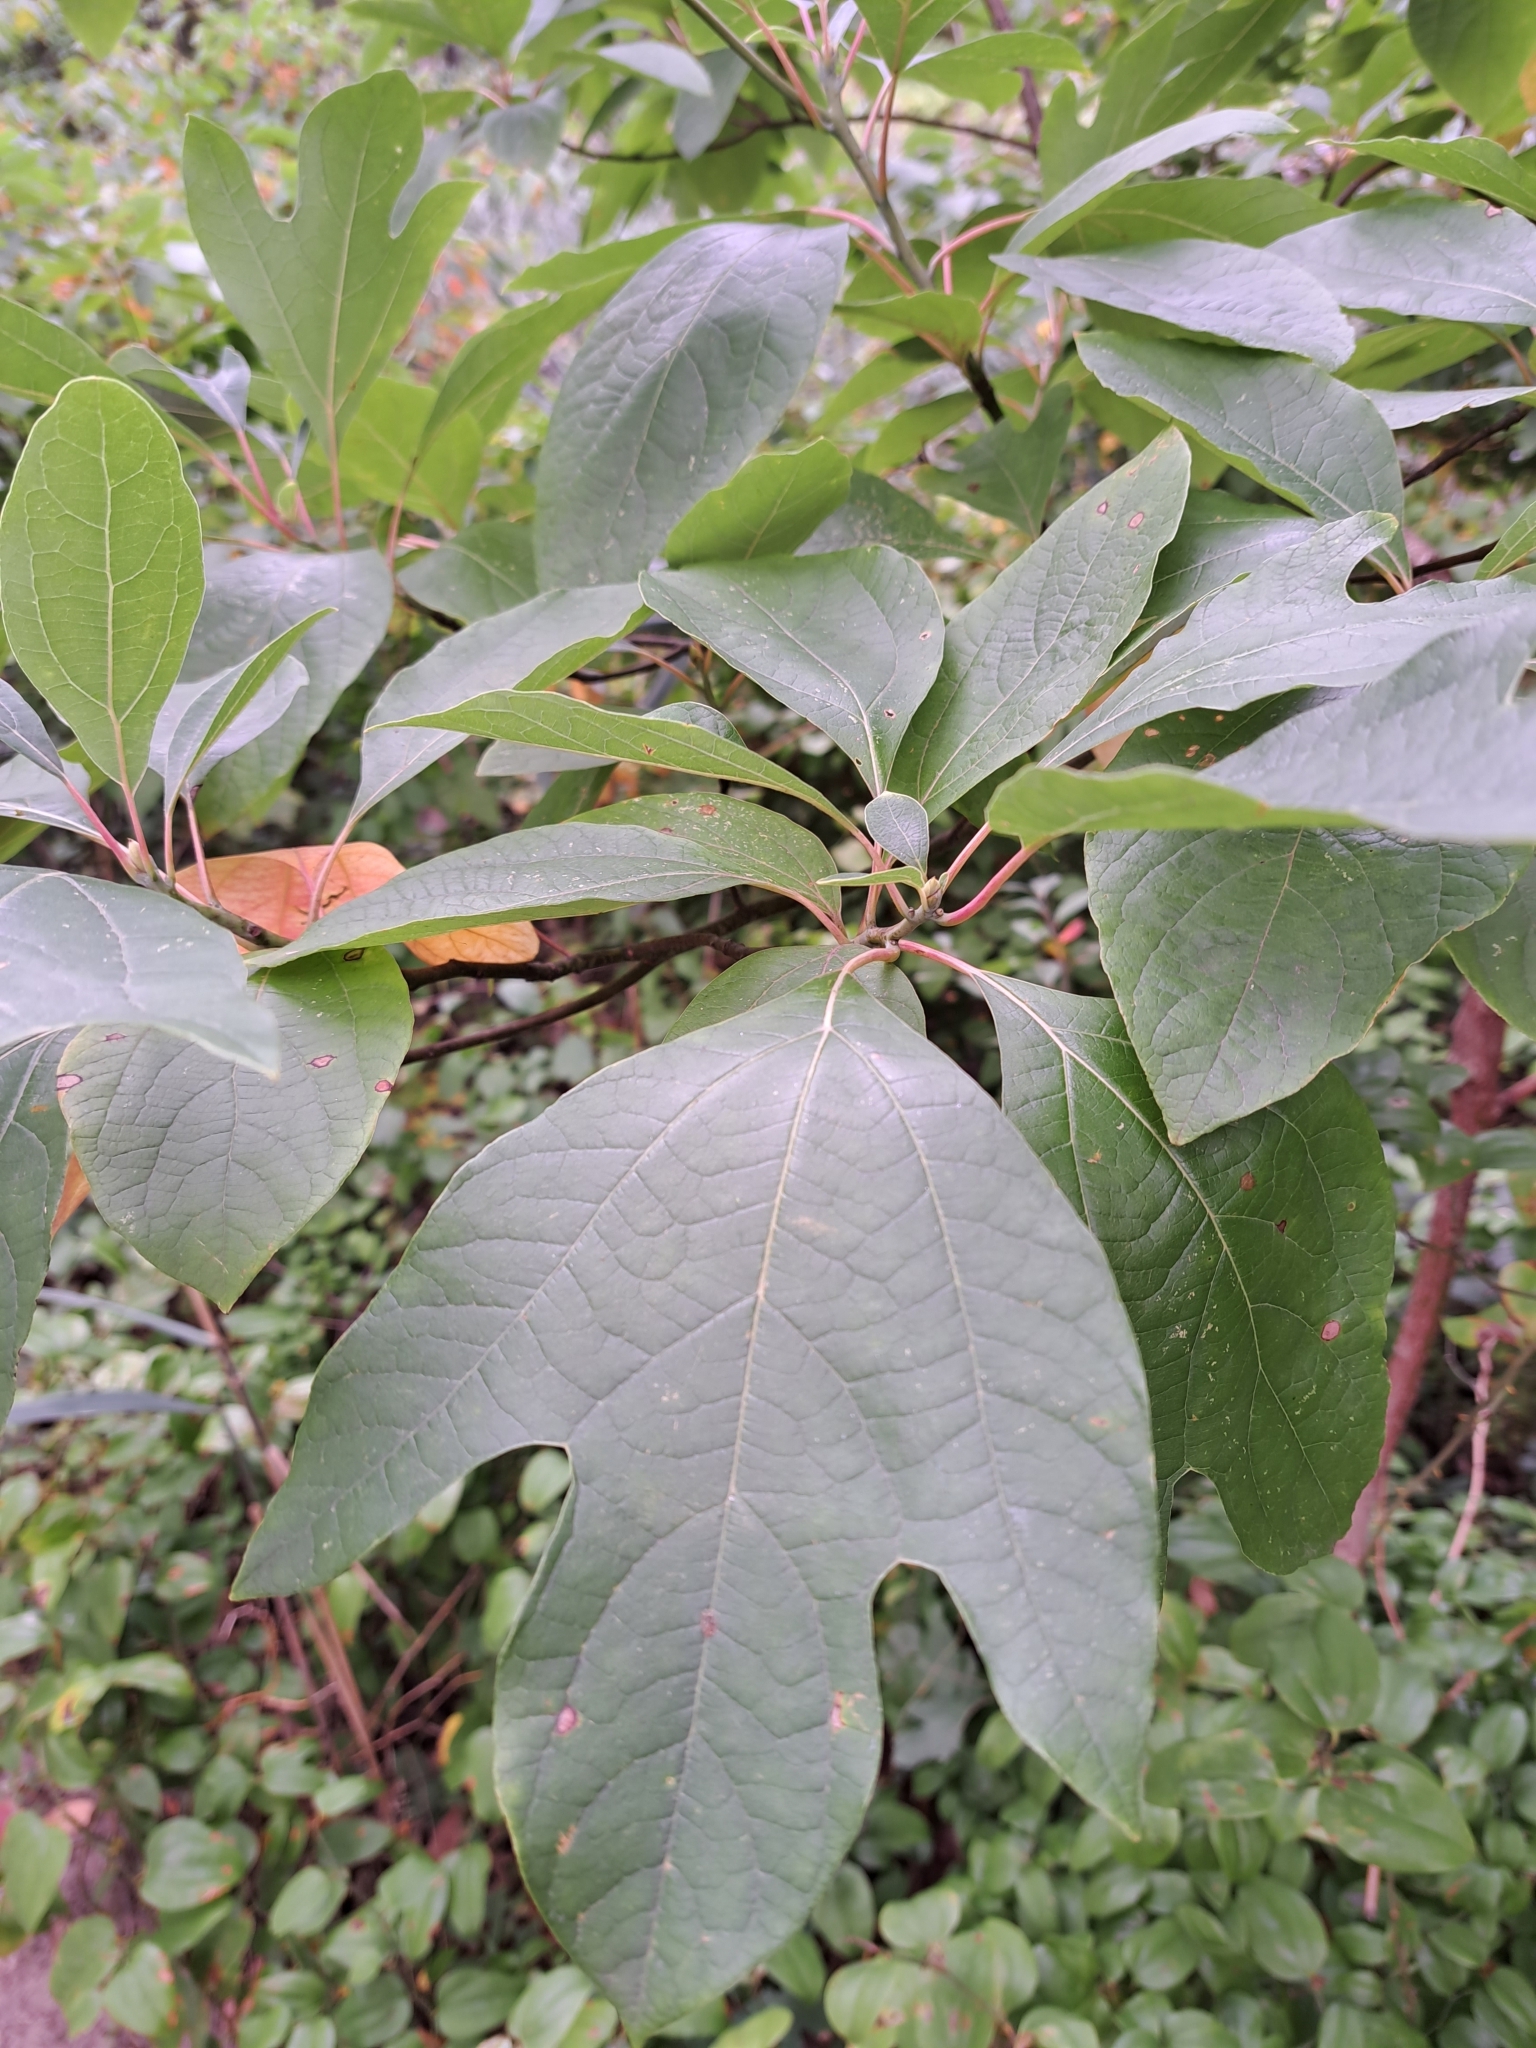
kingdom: Plantae
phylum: Tracheophyta
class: Magnoliopsida
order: Laurales
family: Lauraceae
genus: Sassafras
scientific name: Sassafras albidum
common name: Sassafras
